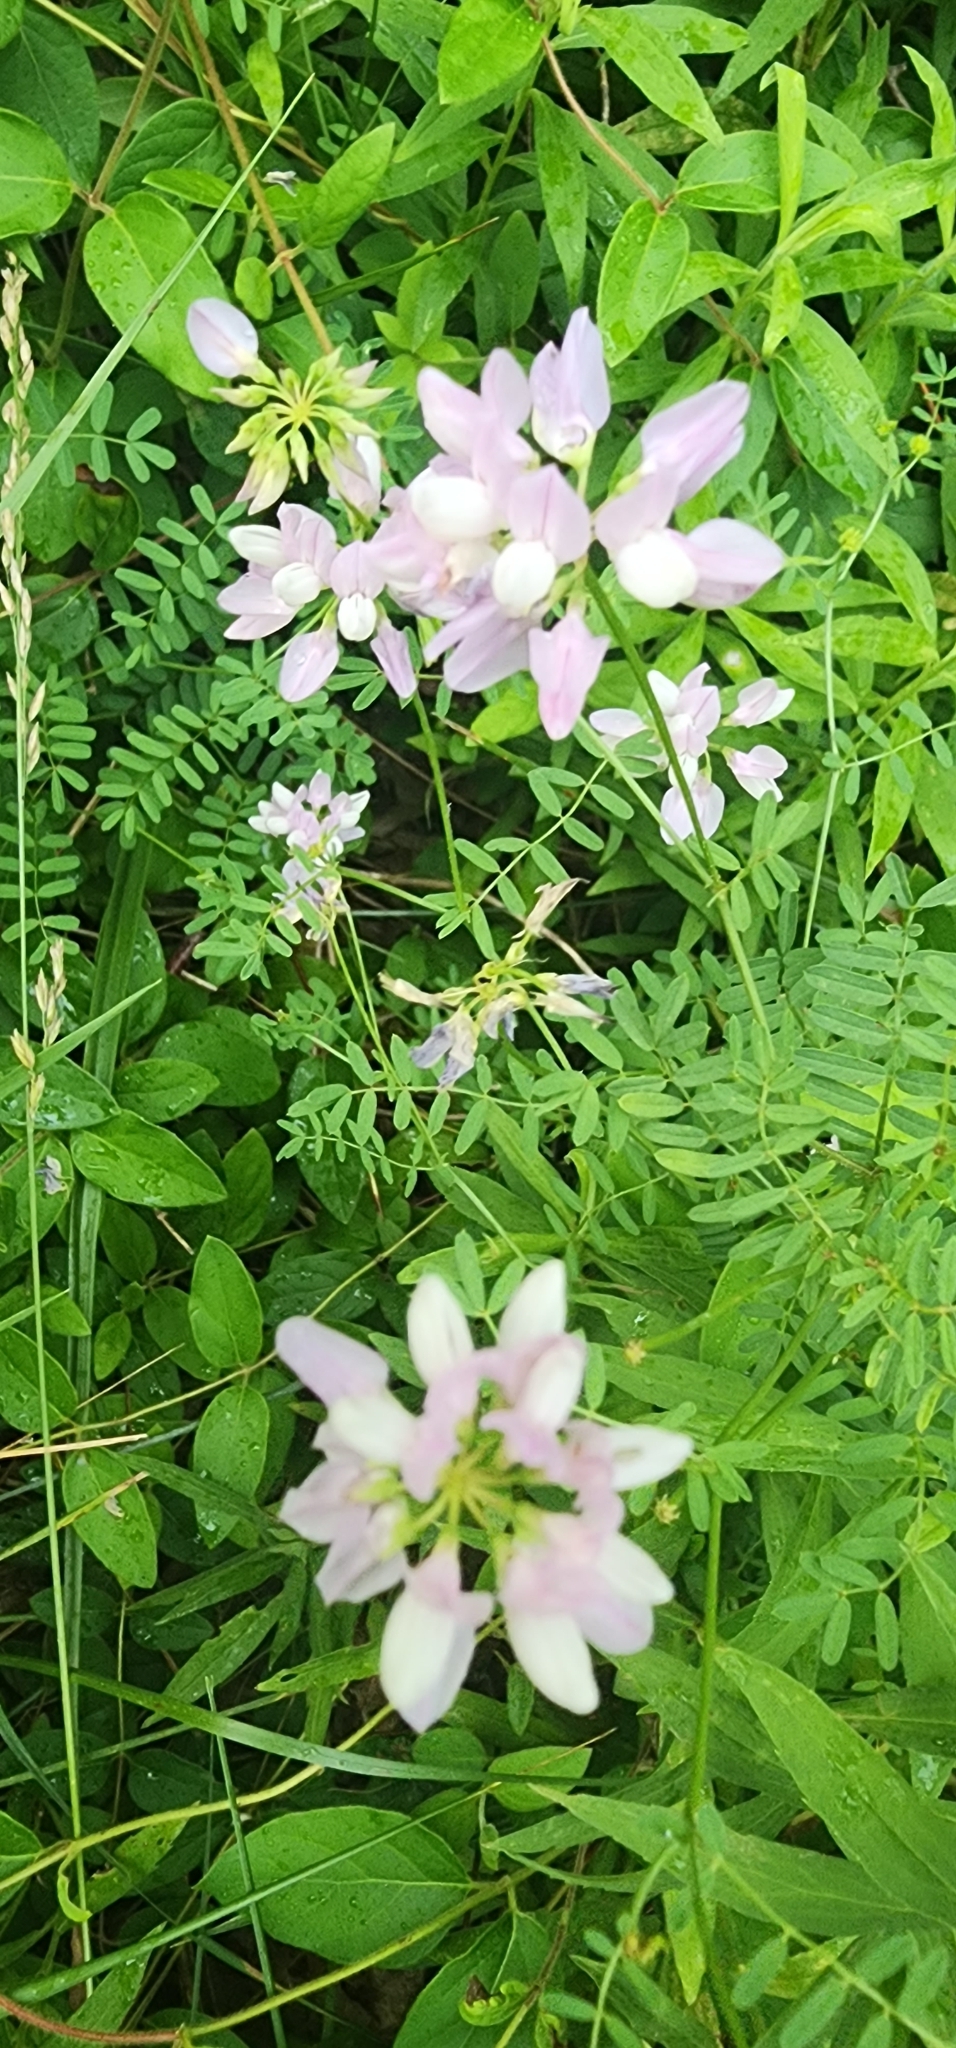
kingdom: Plantae
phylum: Tracheophyta
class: Magnoliopsida
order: Fabales
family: Fabaceae
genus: Coronilla
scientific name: Coronilla varia
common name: Crownvetch
